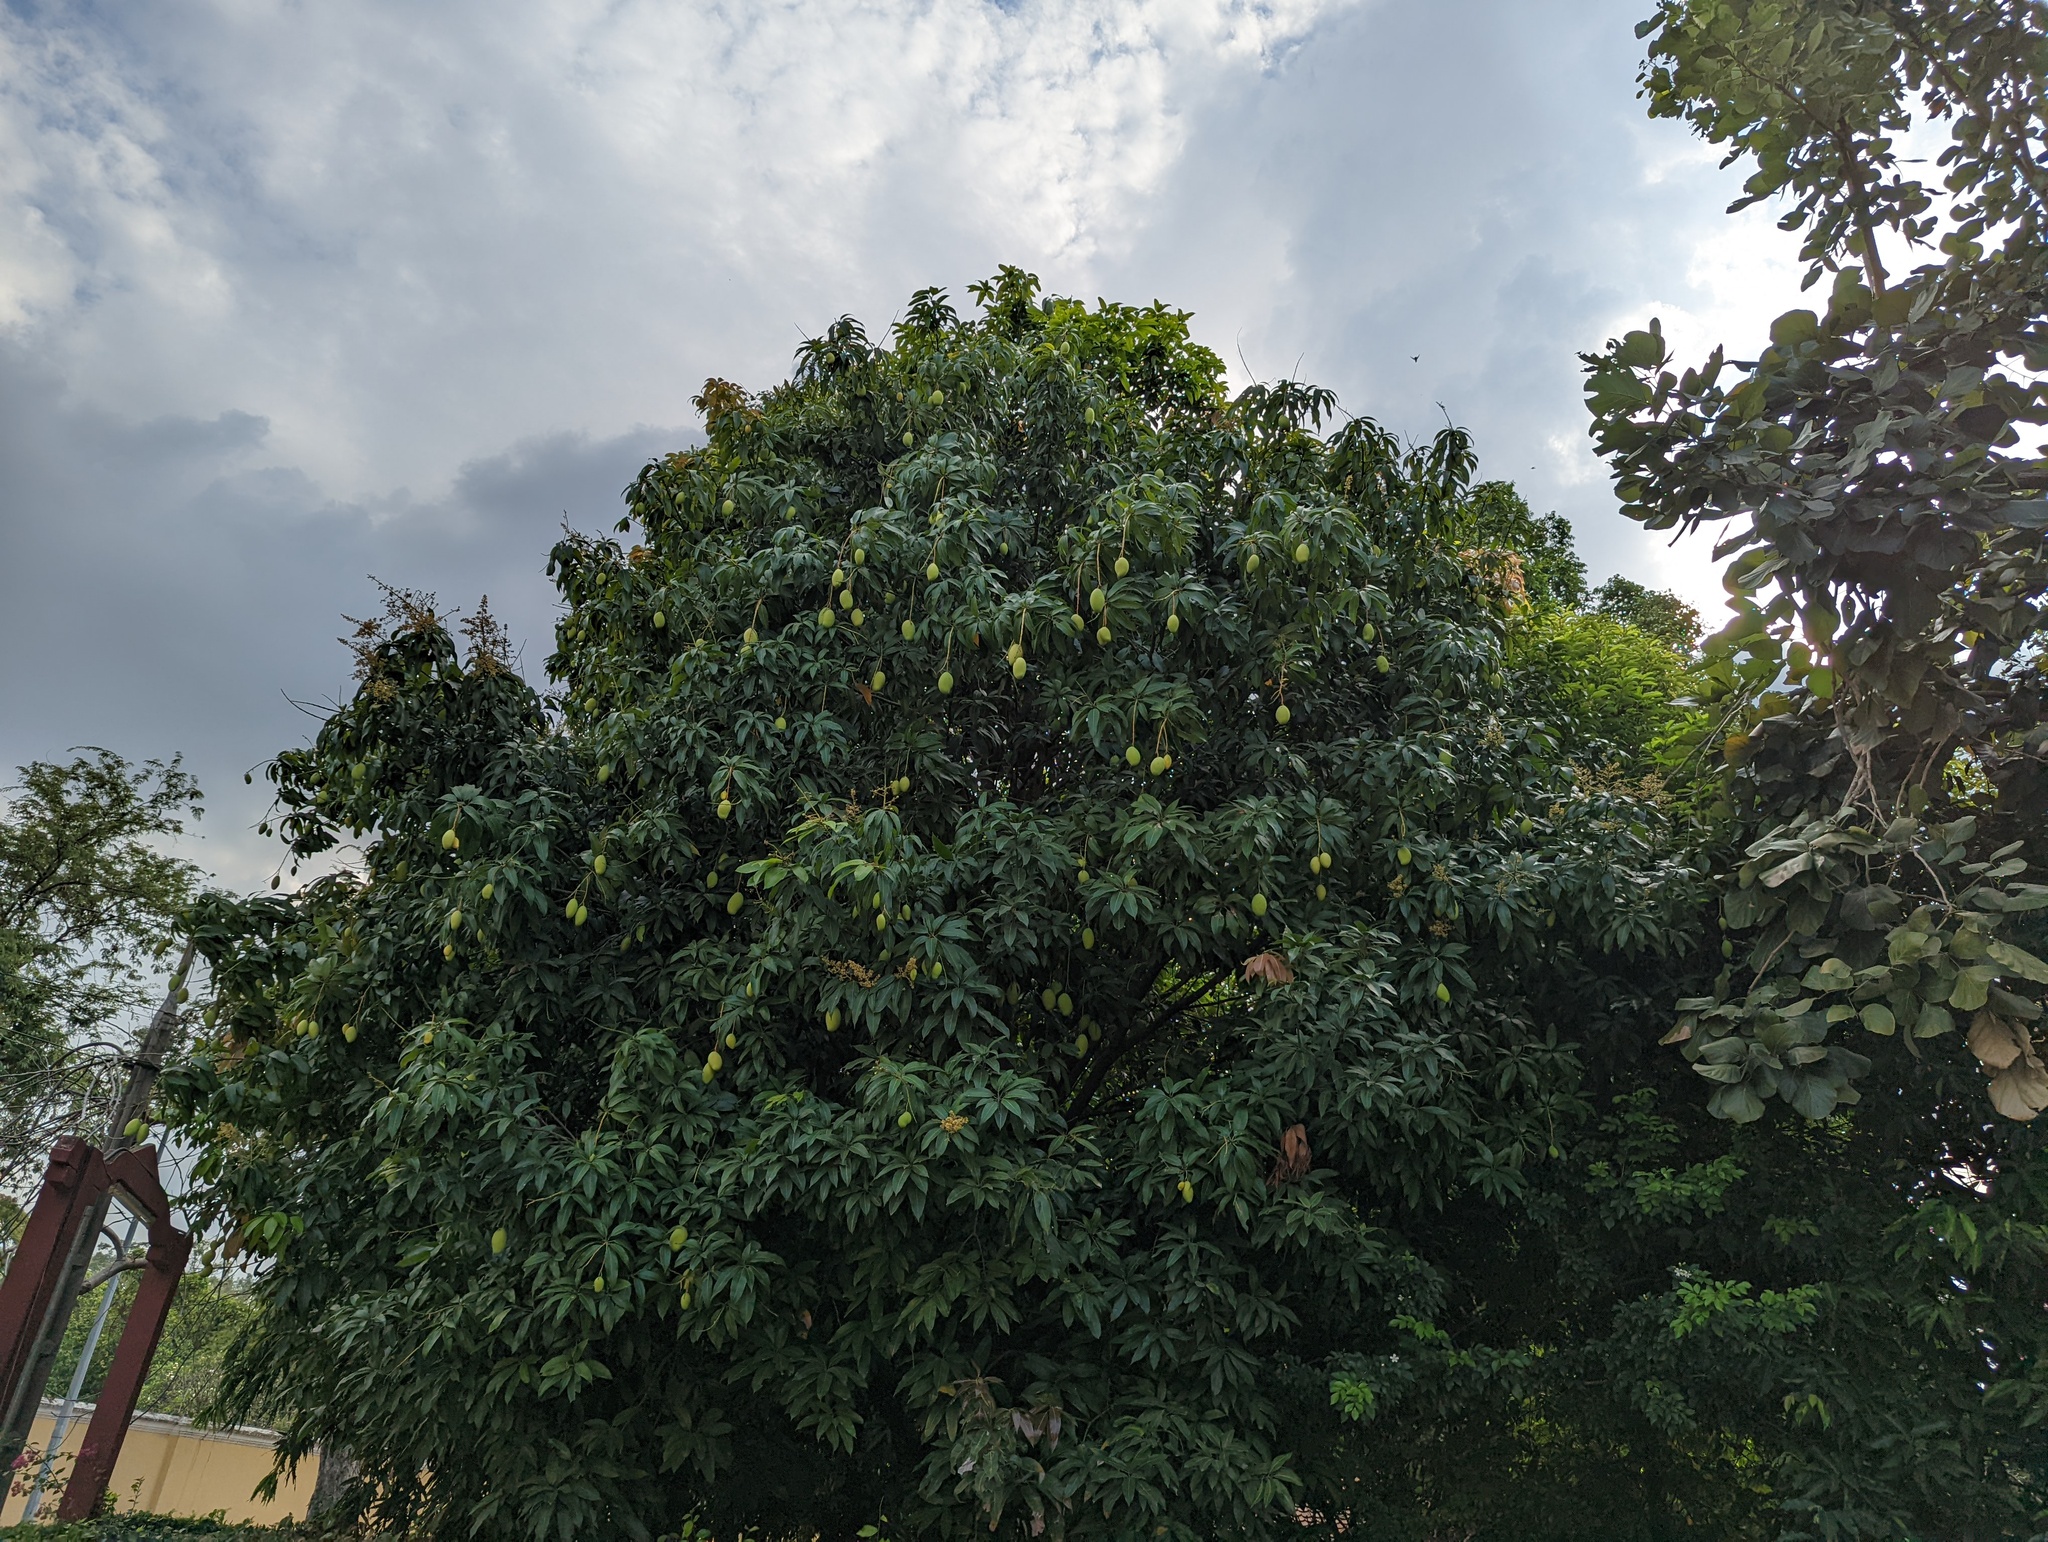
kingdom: Plantae
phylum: Tracheophyta
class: Magnoliopsida
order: Sapindales
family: Anacardiaceae
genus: Mangifera
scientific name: Mangifera indica
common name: Mango
